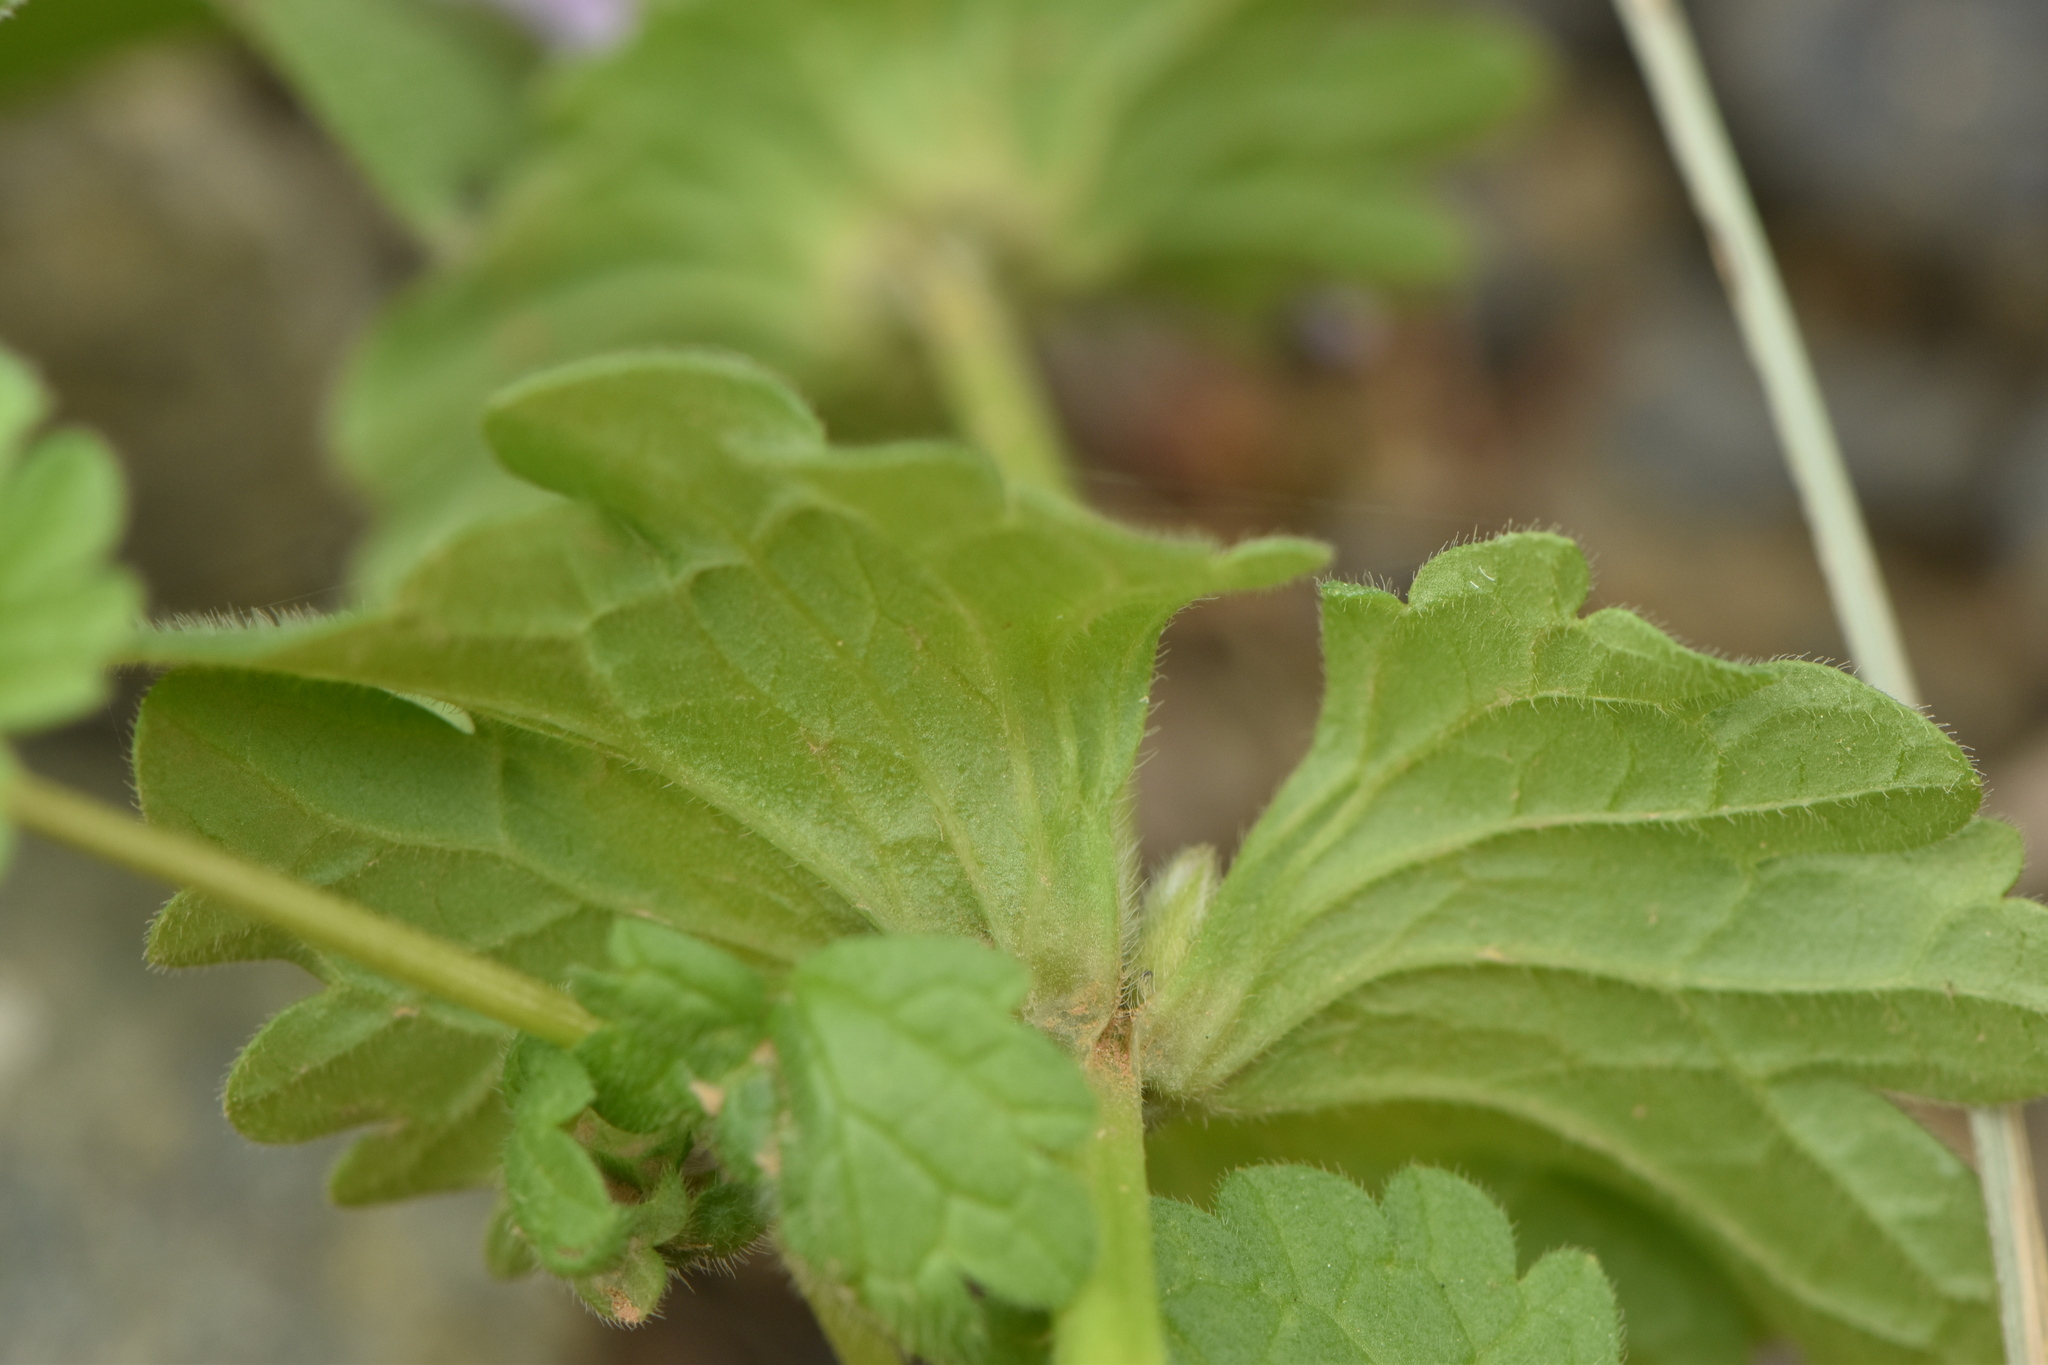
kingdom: Plantae
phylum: Tracheophyta
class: Magnoliopsida
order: Lamiales
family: Lamiaceae
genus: Lamium
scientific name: Lamium amplexicaule
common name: Henbit dead-nettle
